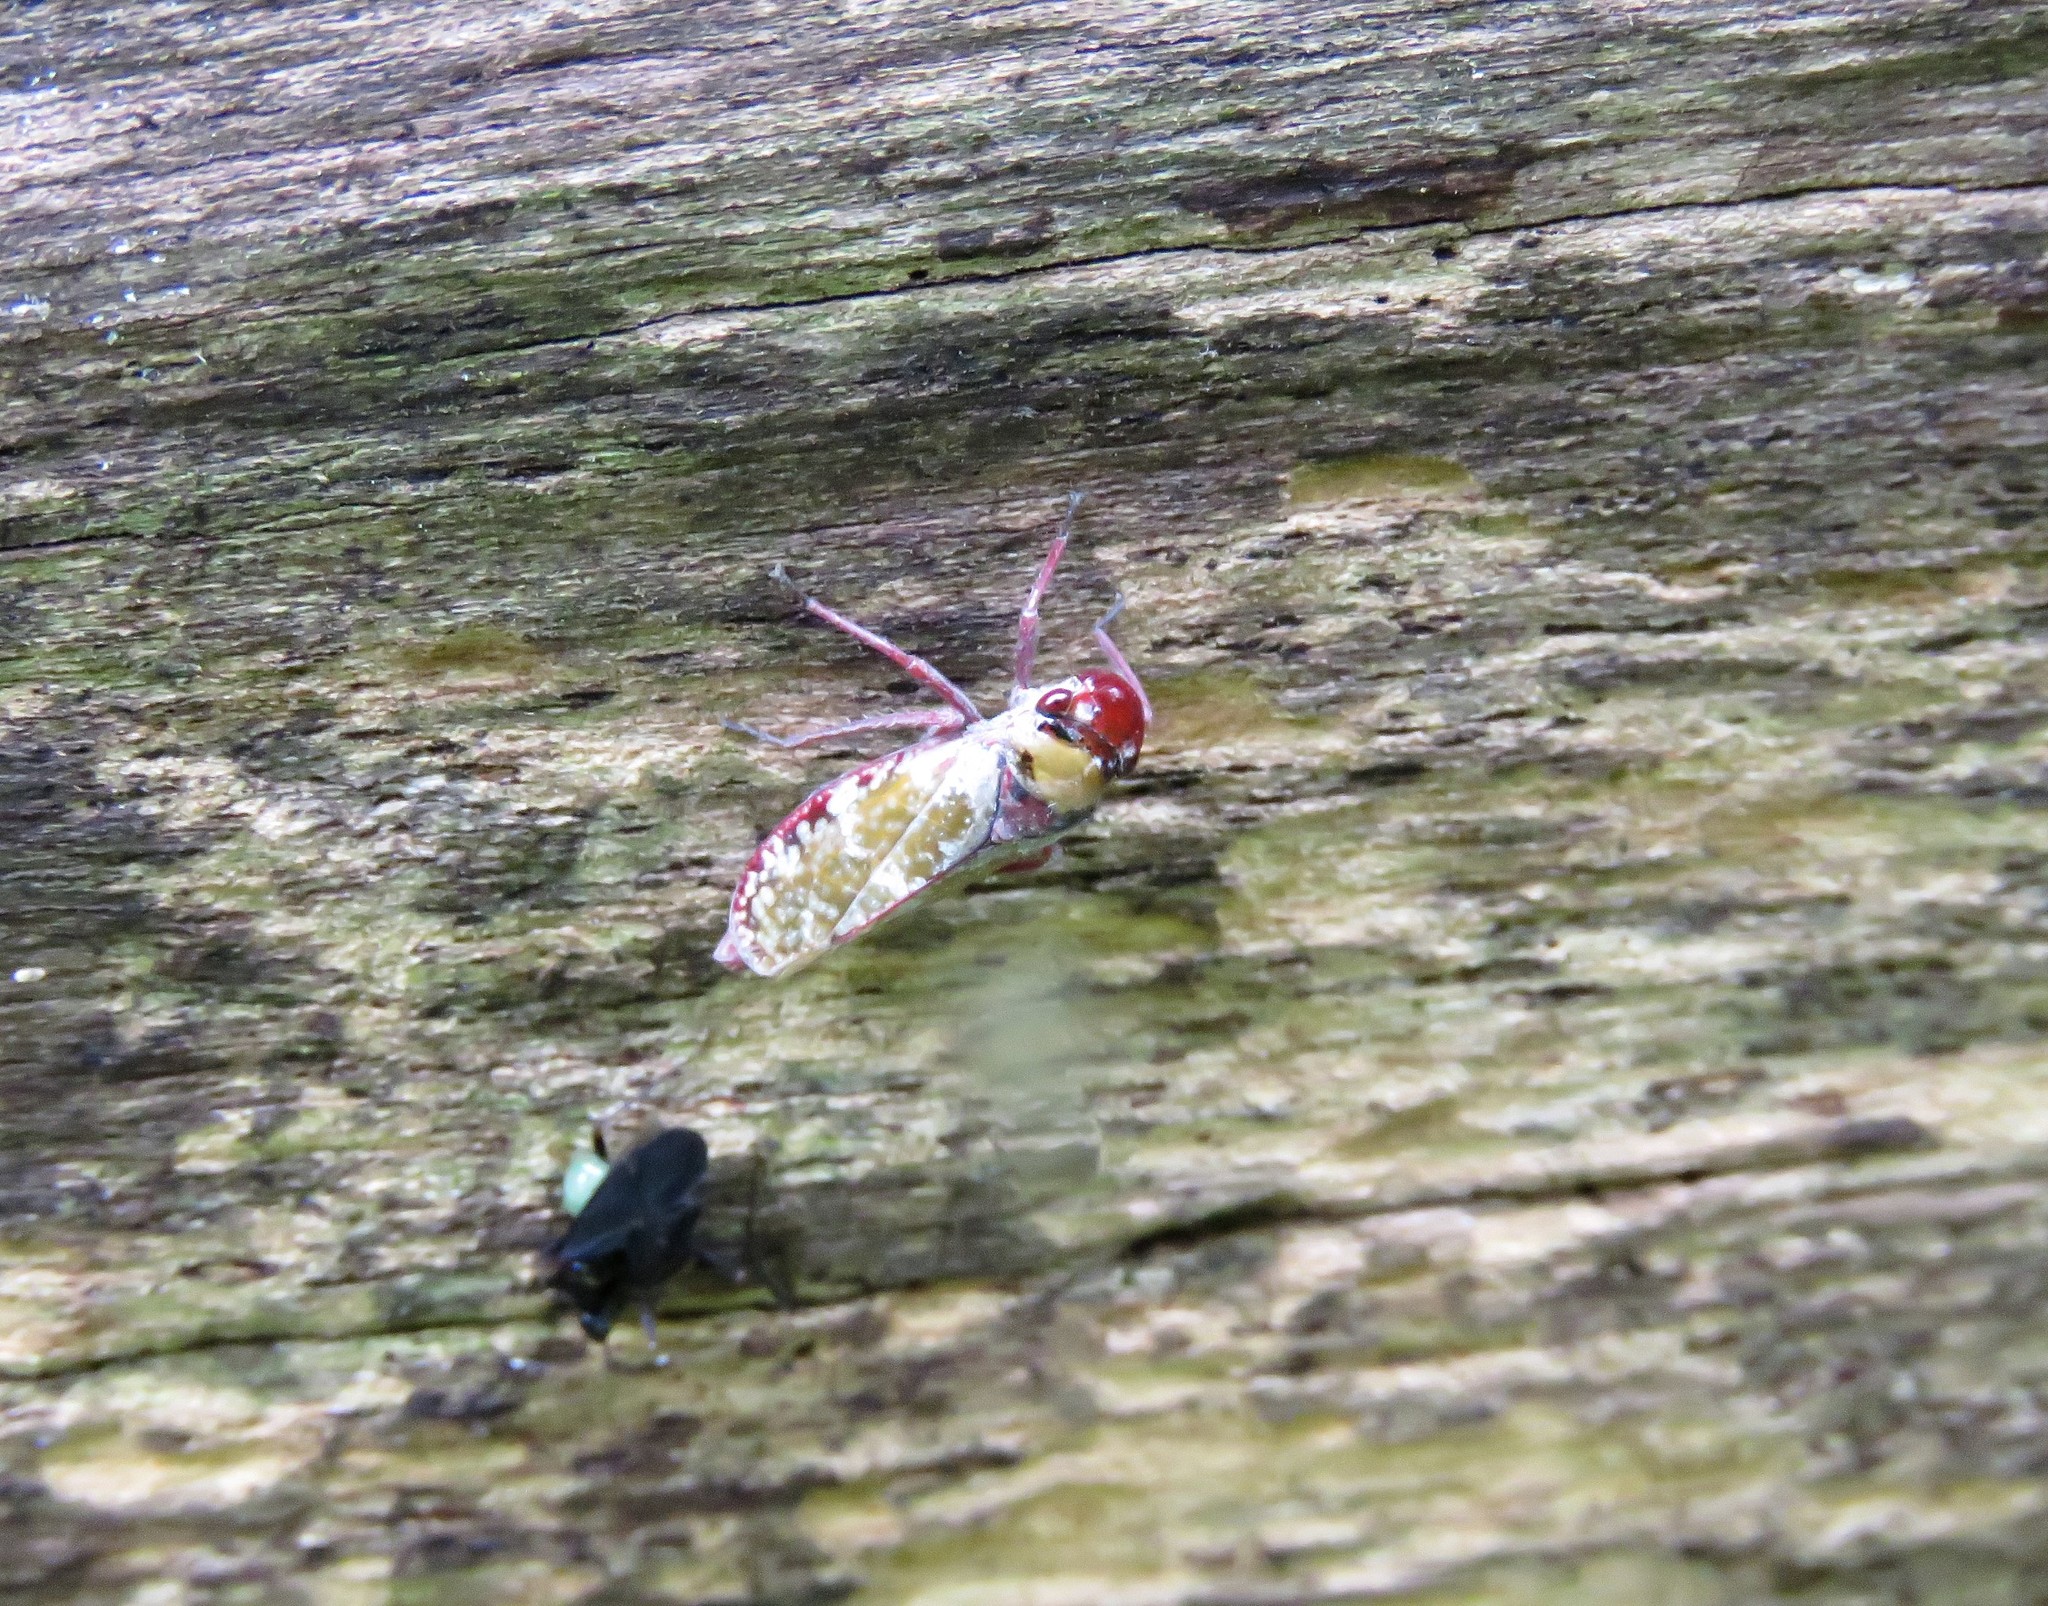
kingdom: Animalia
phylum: Arthropoda
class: Insecta
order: Hemiptera
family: Cicadellidae
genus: Paracatua
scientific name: Paracatua rubrolimbata
